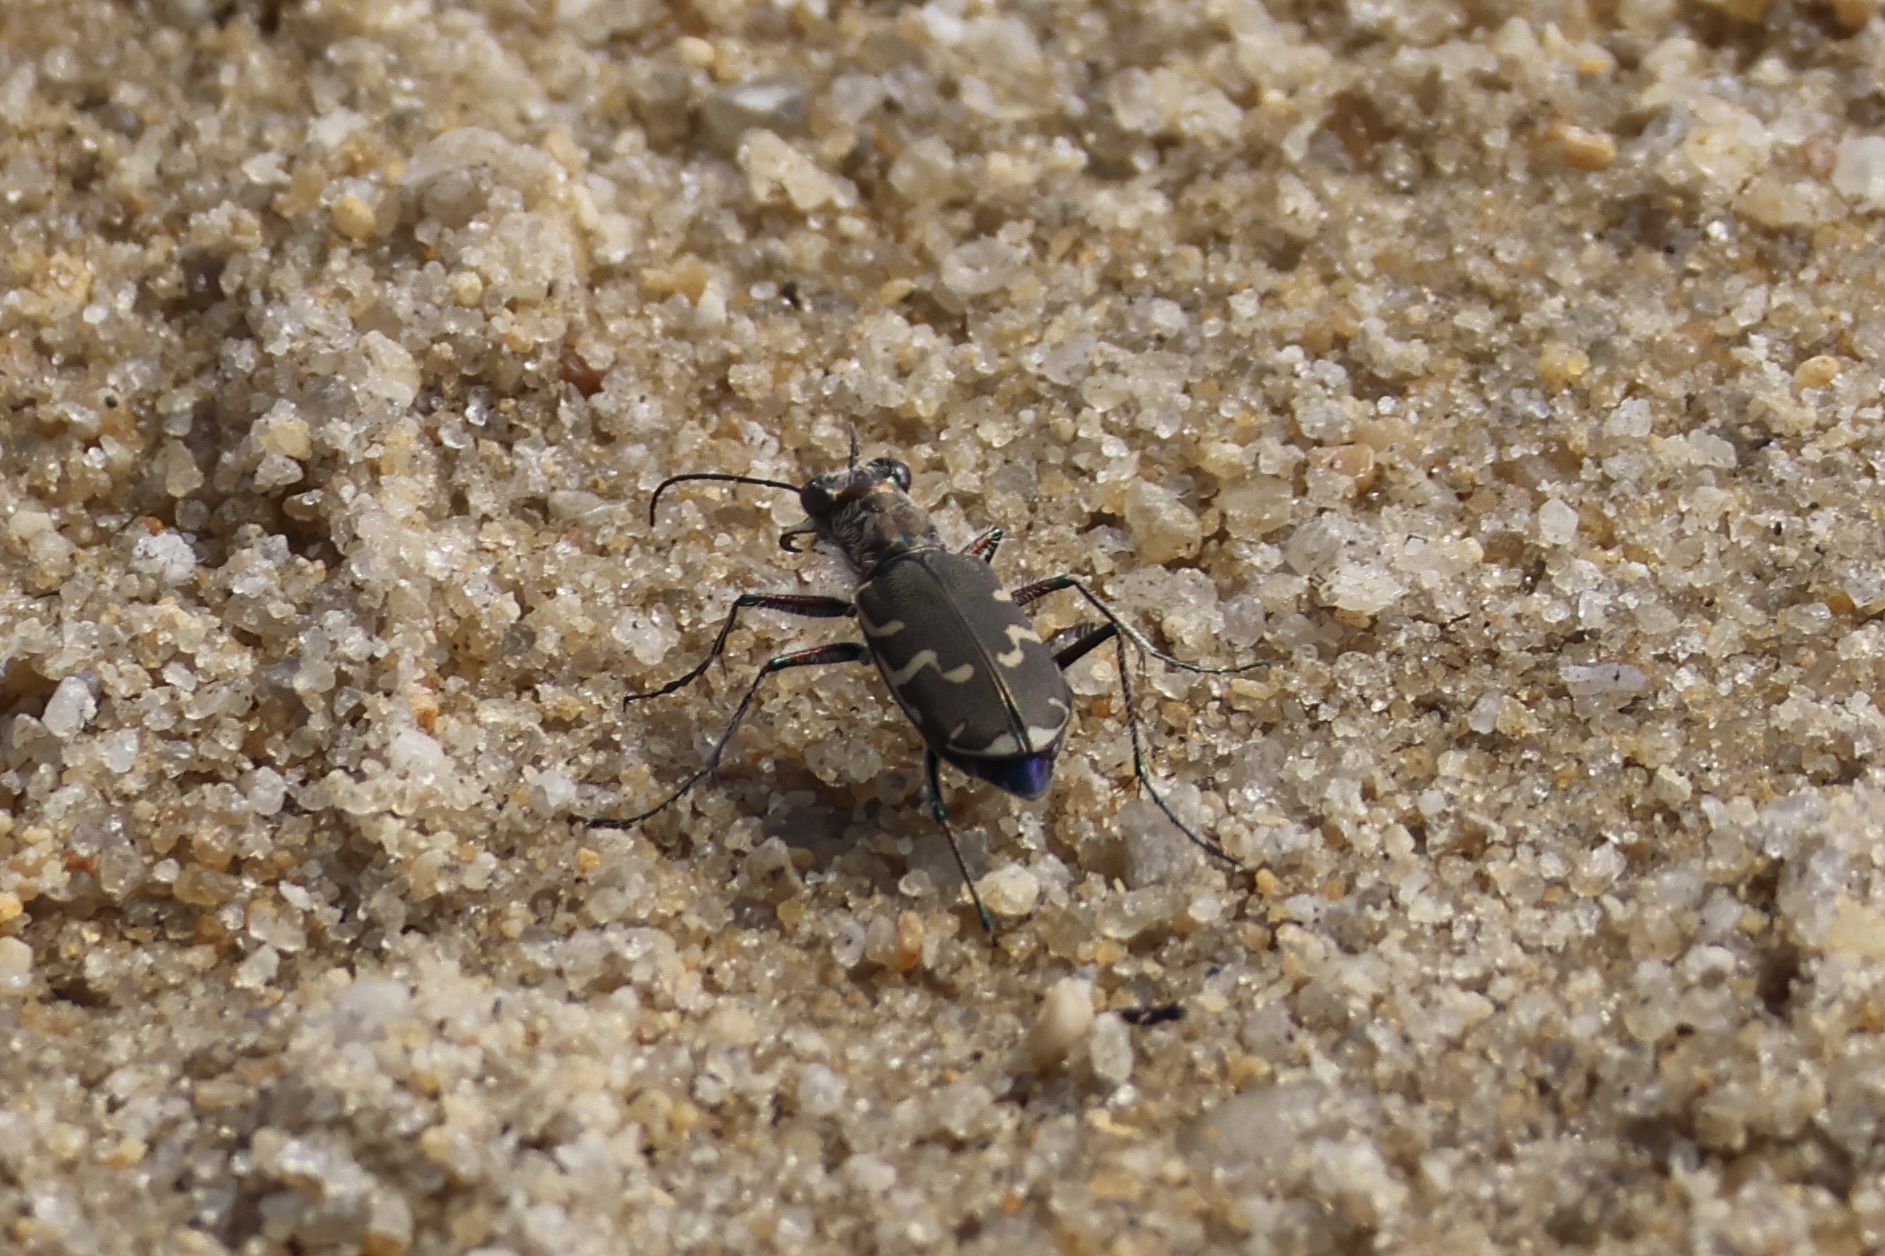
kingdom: Animalia
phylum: Arthropoda
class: Insecta
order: Coleoptera
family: Carabidae
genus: Cicindela
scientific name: Cicindela repanda
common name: Bronzed tiger beetle
